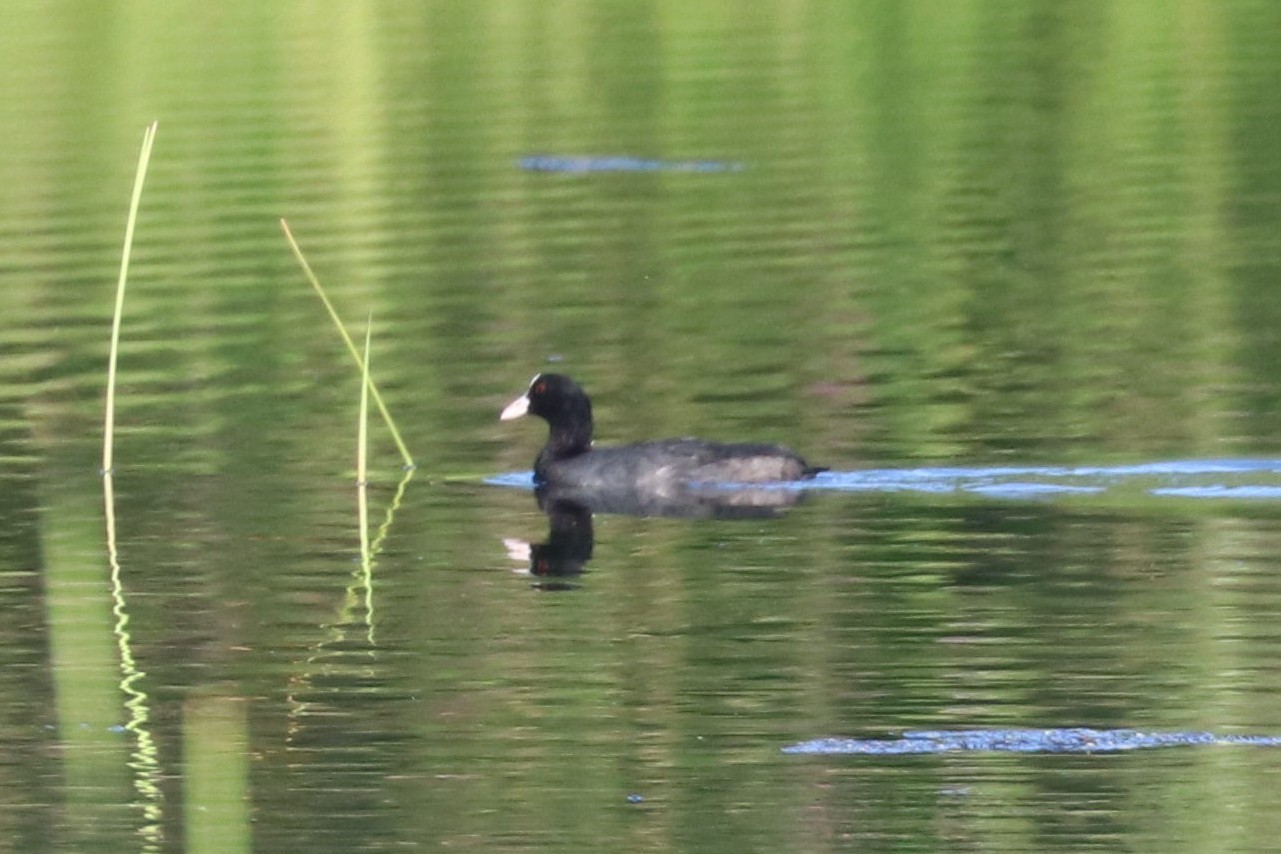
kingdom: Animalia
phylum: Chordata
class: Aves
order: Gruiformes
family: Rallidae
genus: Fulica
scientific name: Fulica atra
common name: Eurasian coot
